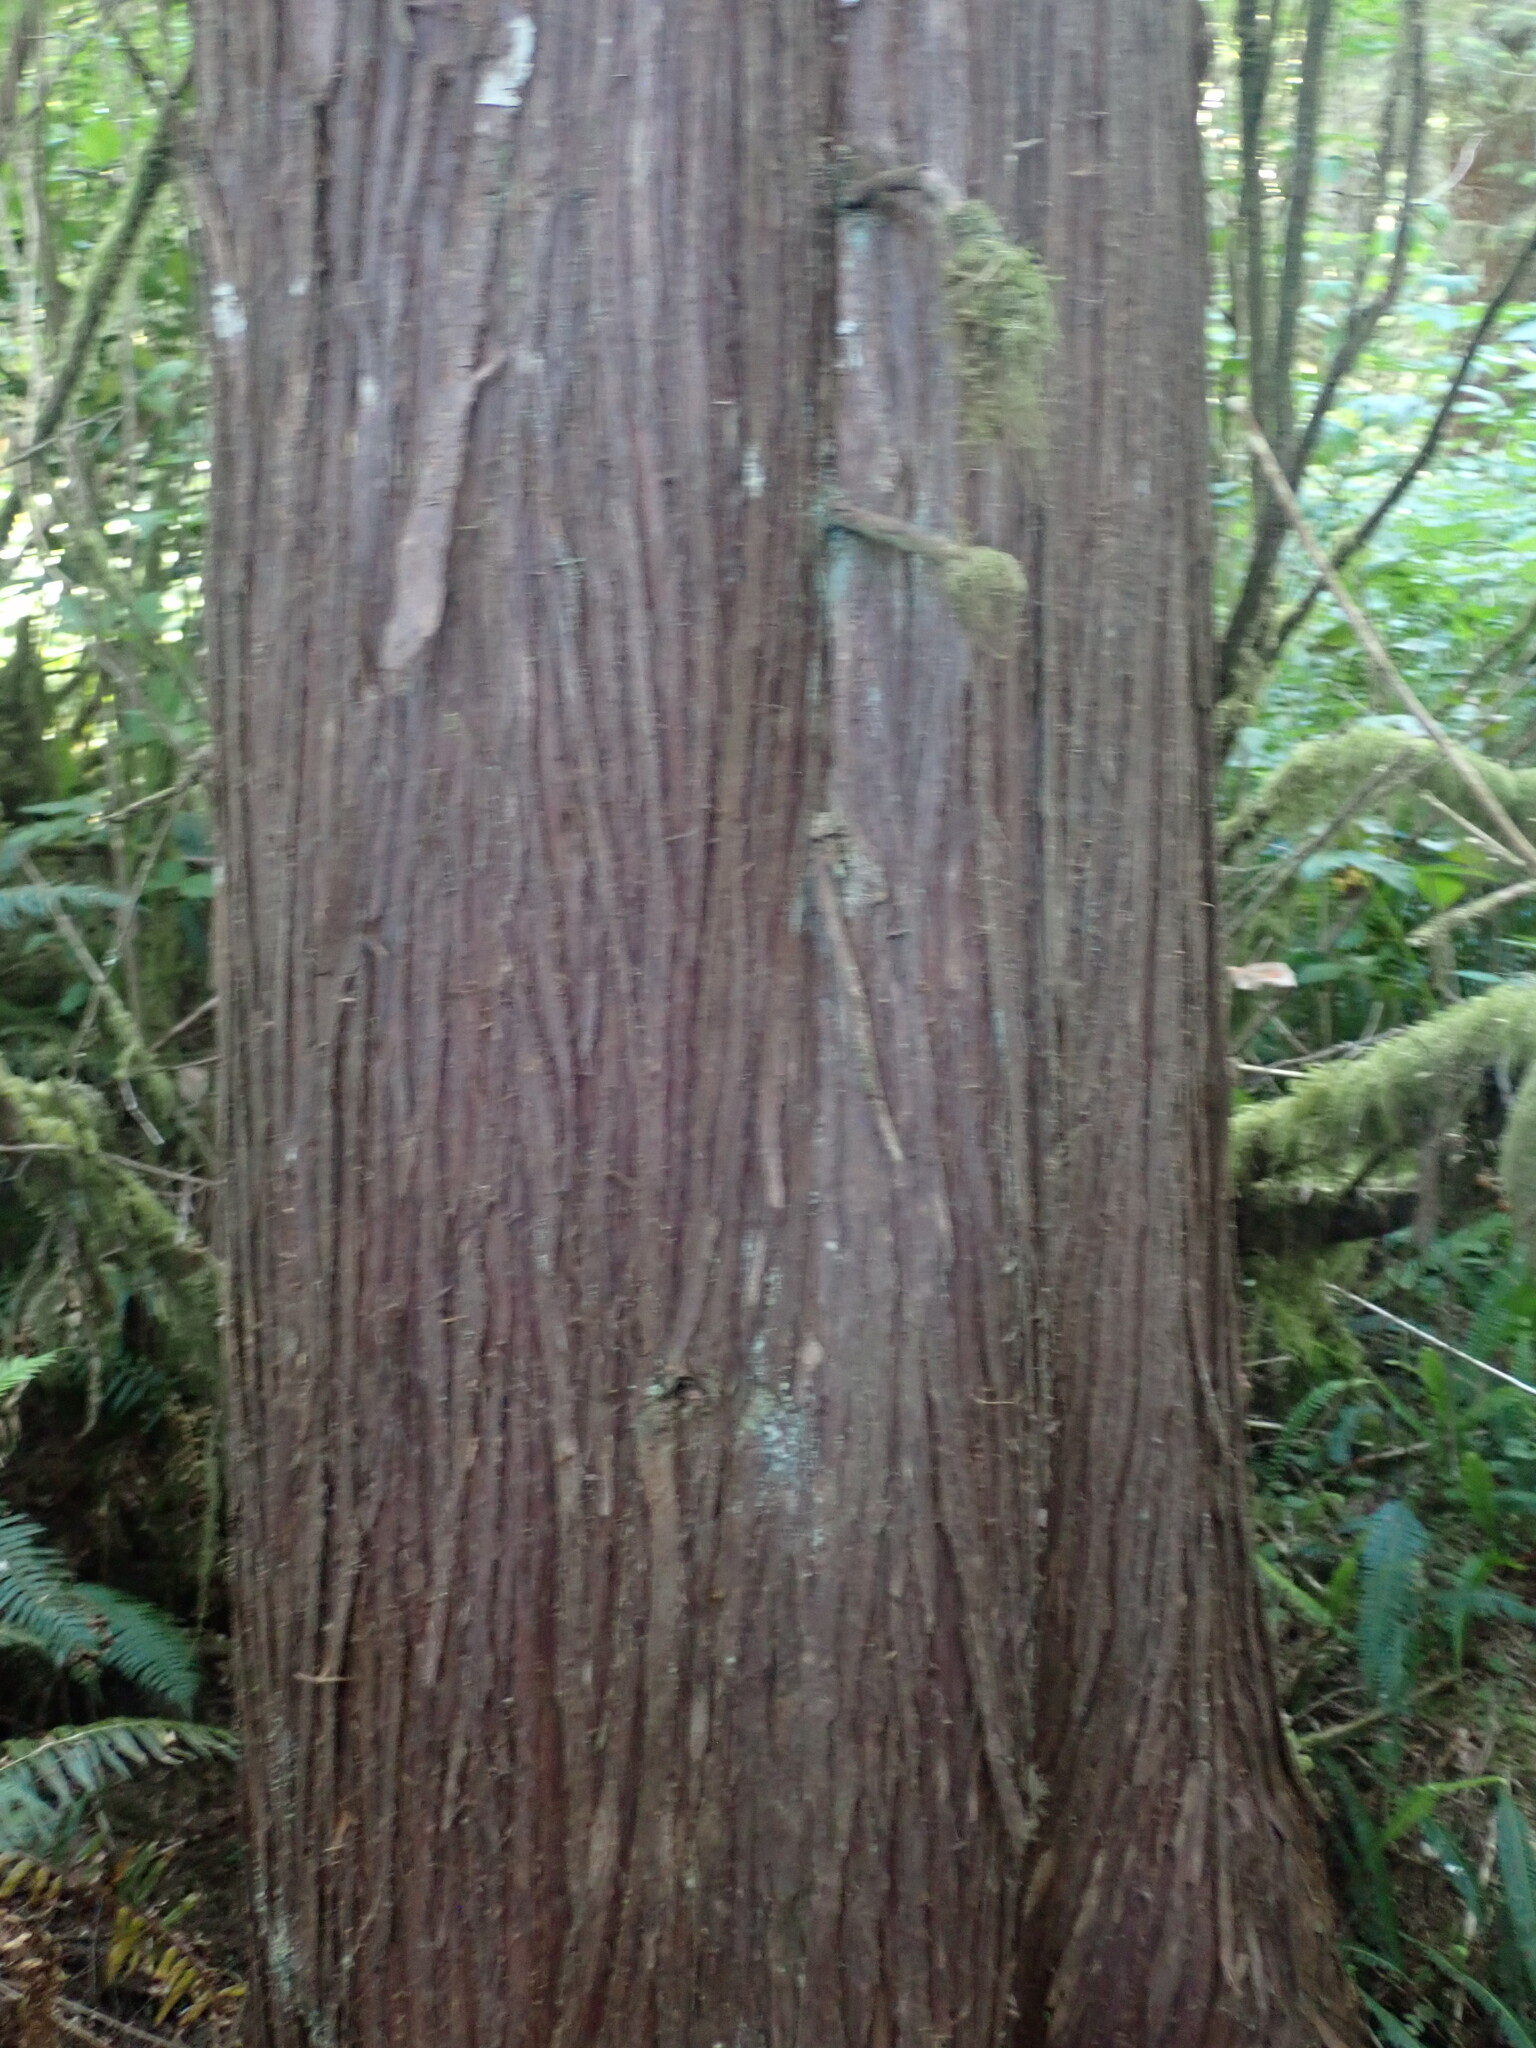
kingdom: Plantae
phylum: Tracheophyta
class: Pinopsida
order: Pinales
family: Cupressaceae
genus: Thuja
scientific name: Thuja plicata
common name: Western red-cedar
